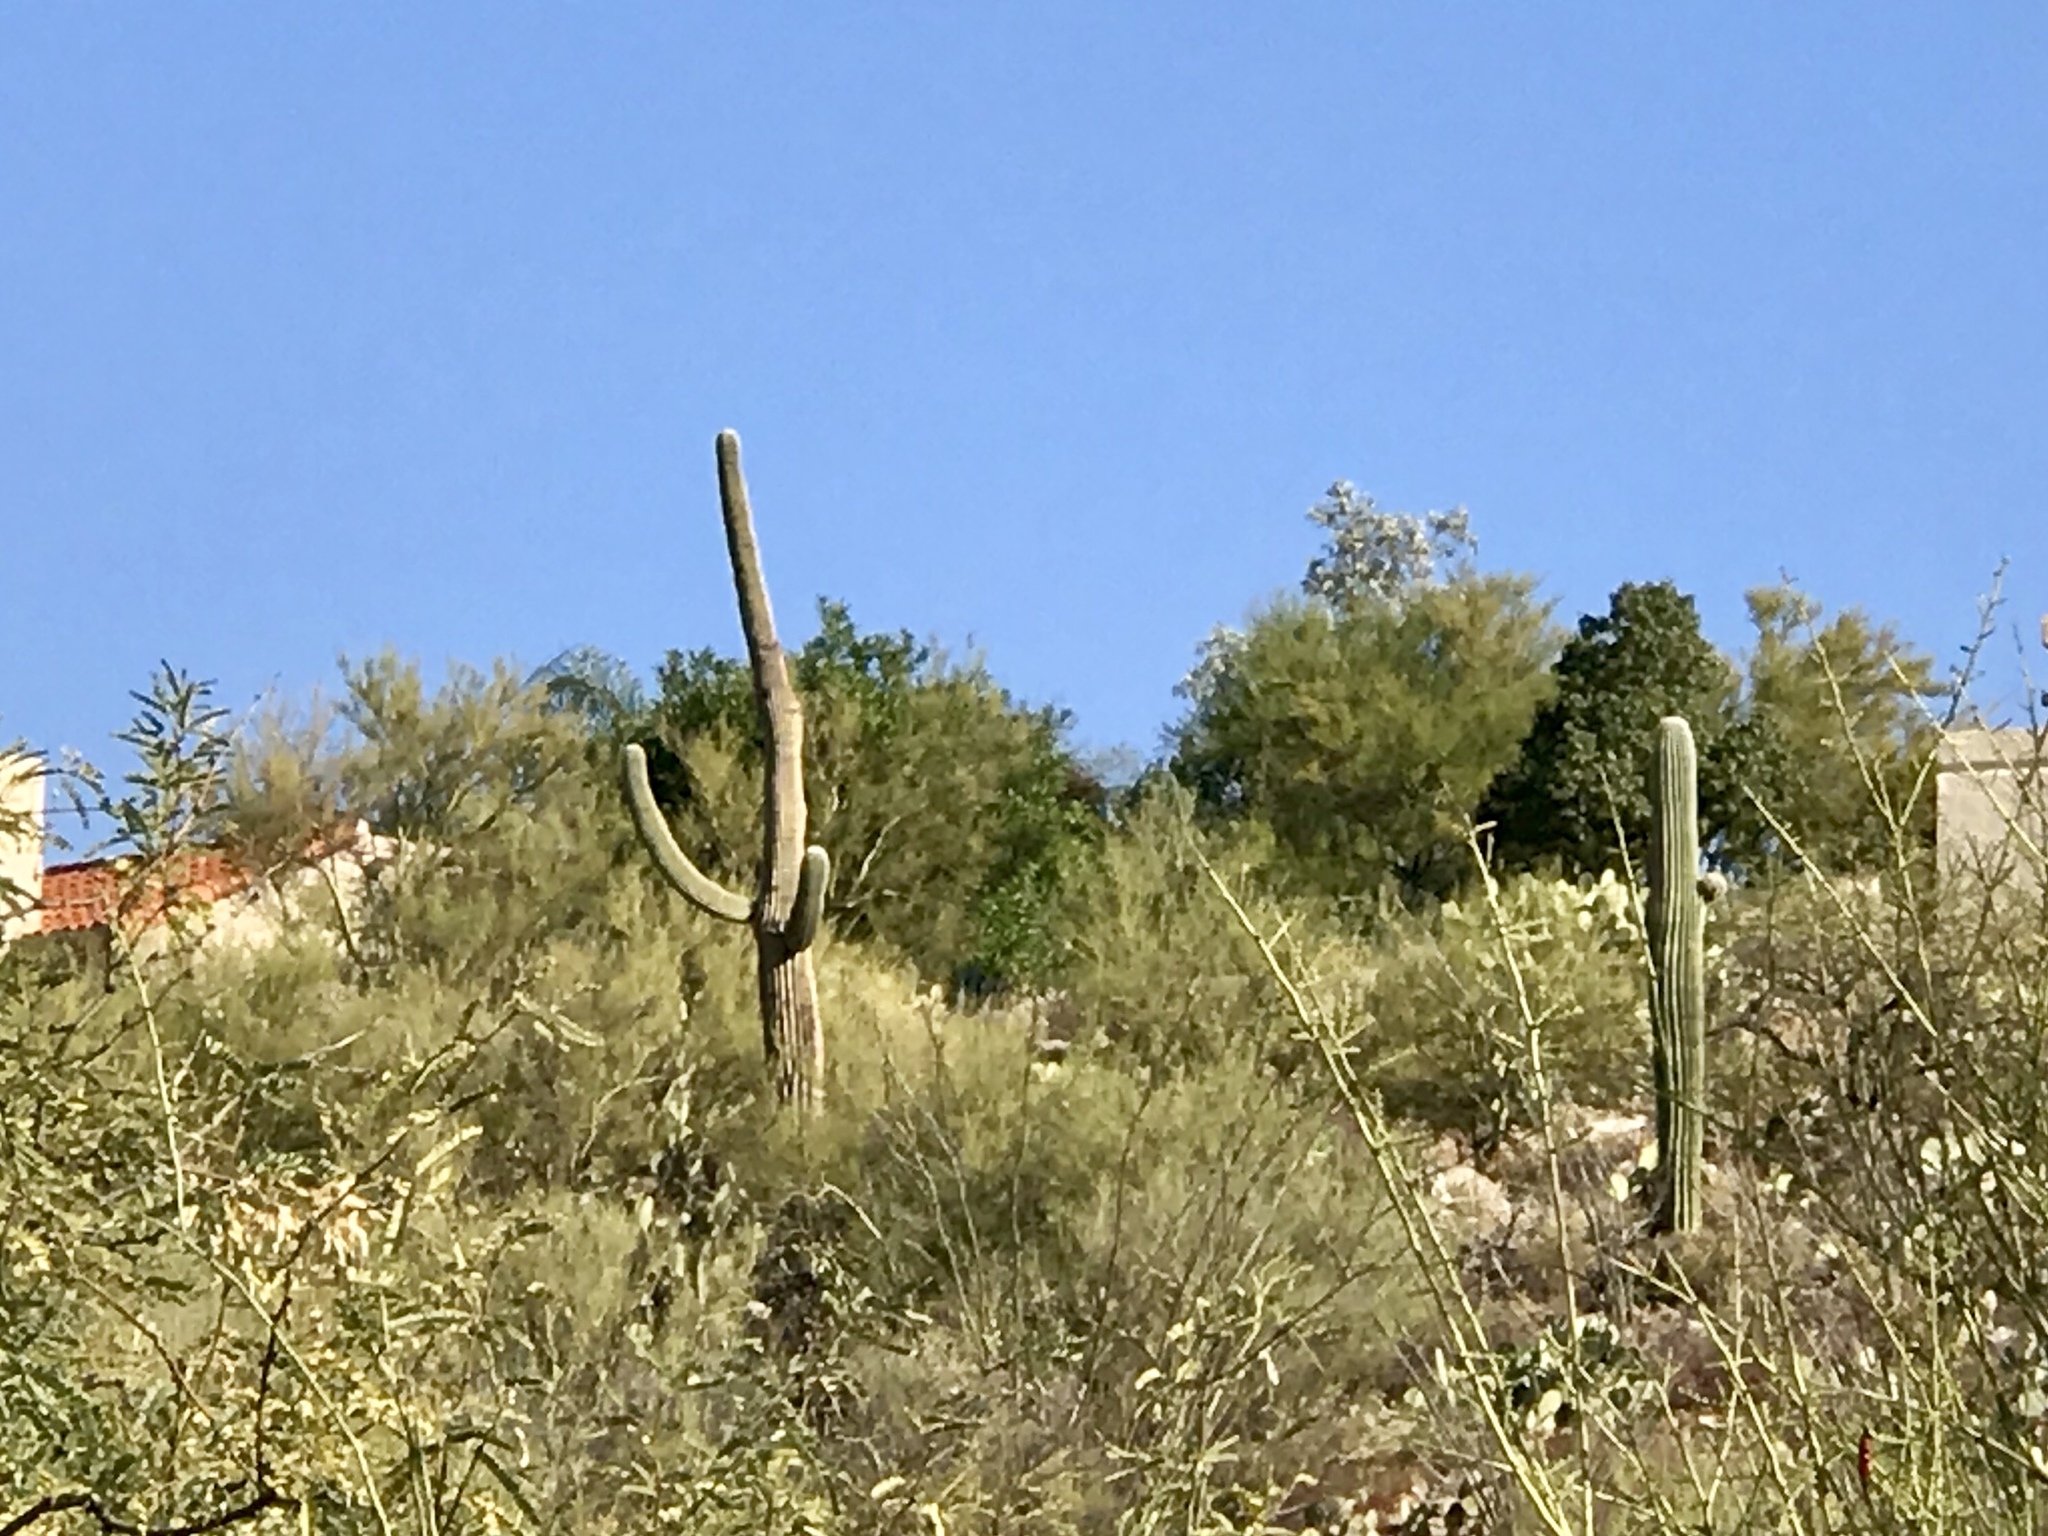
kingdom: Plantae
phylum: Tracheophyta
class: Magnoliopsida
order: Caryophyllales
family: Cactaceae
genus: Carnegiea
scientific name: Carnegiea gigantea
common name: Saguaro
